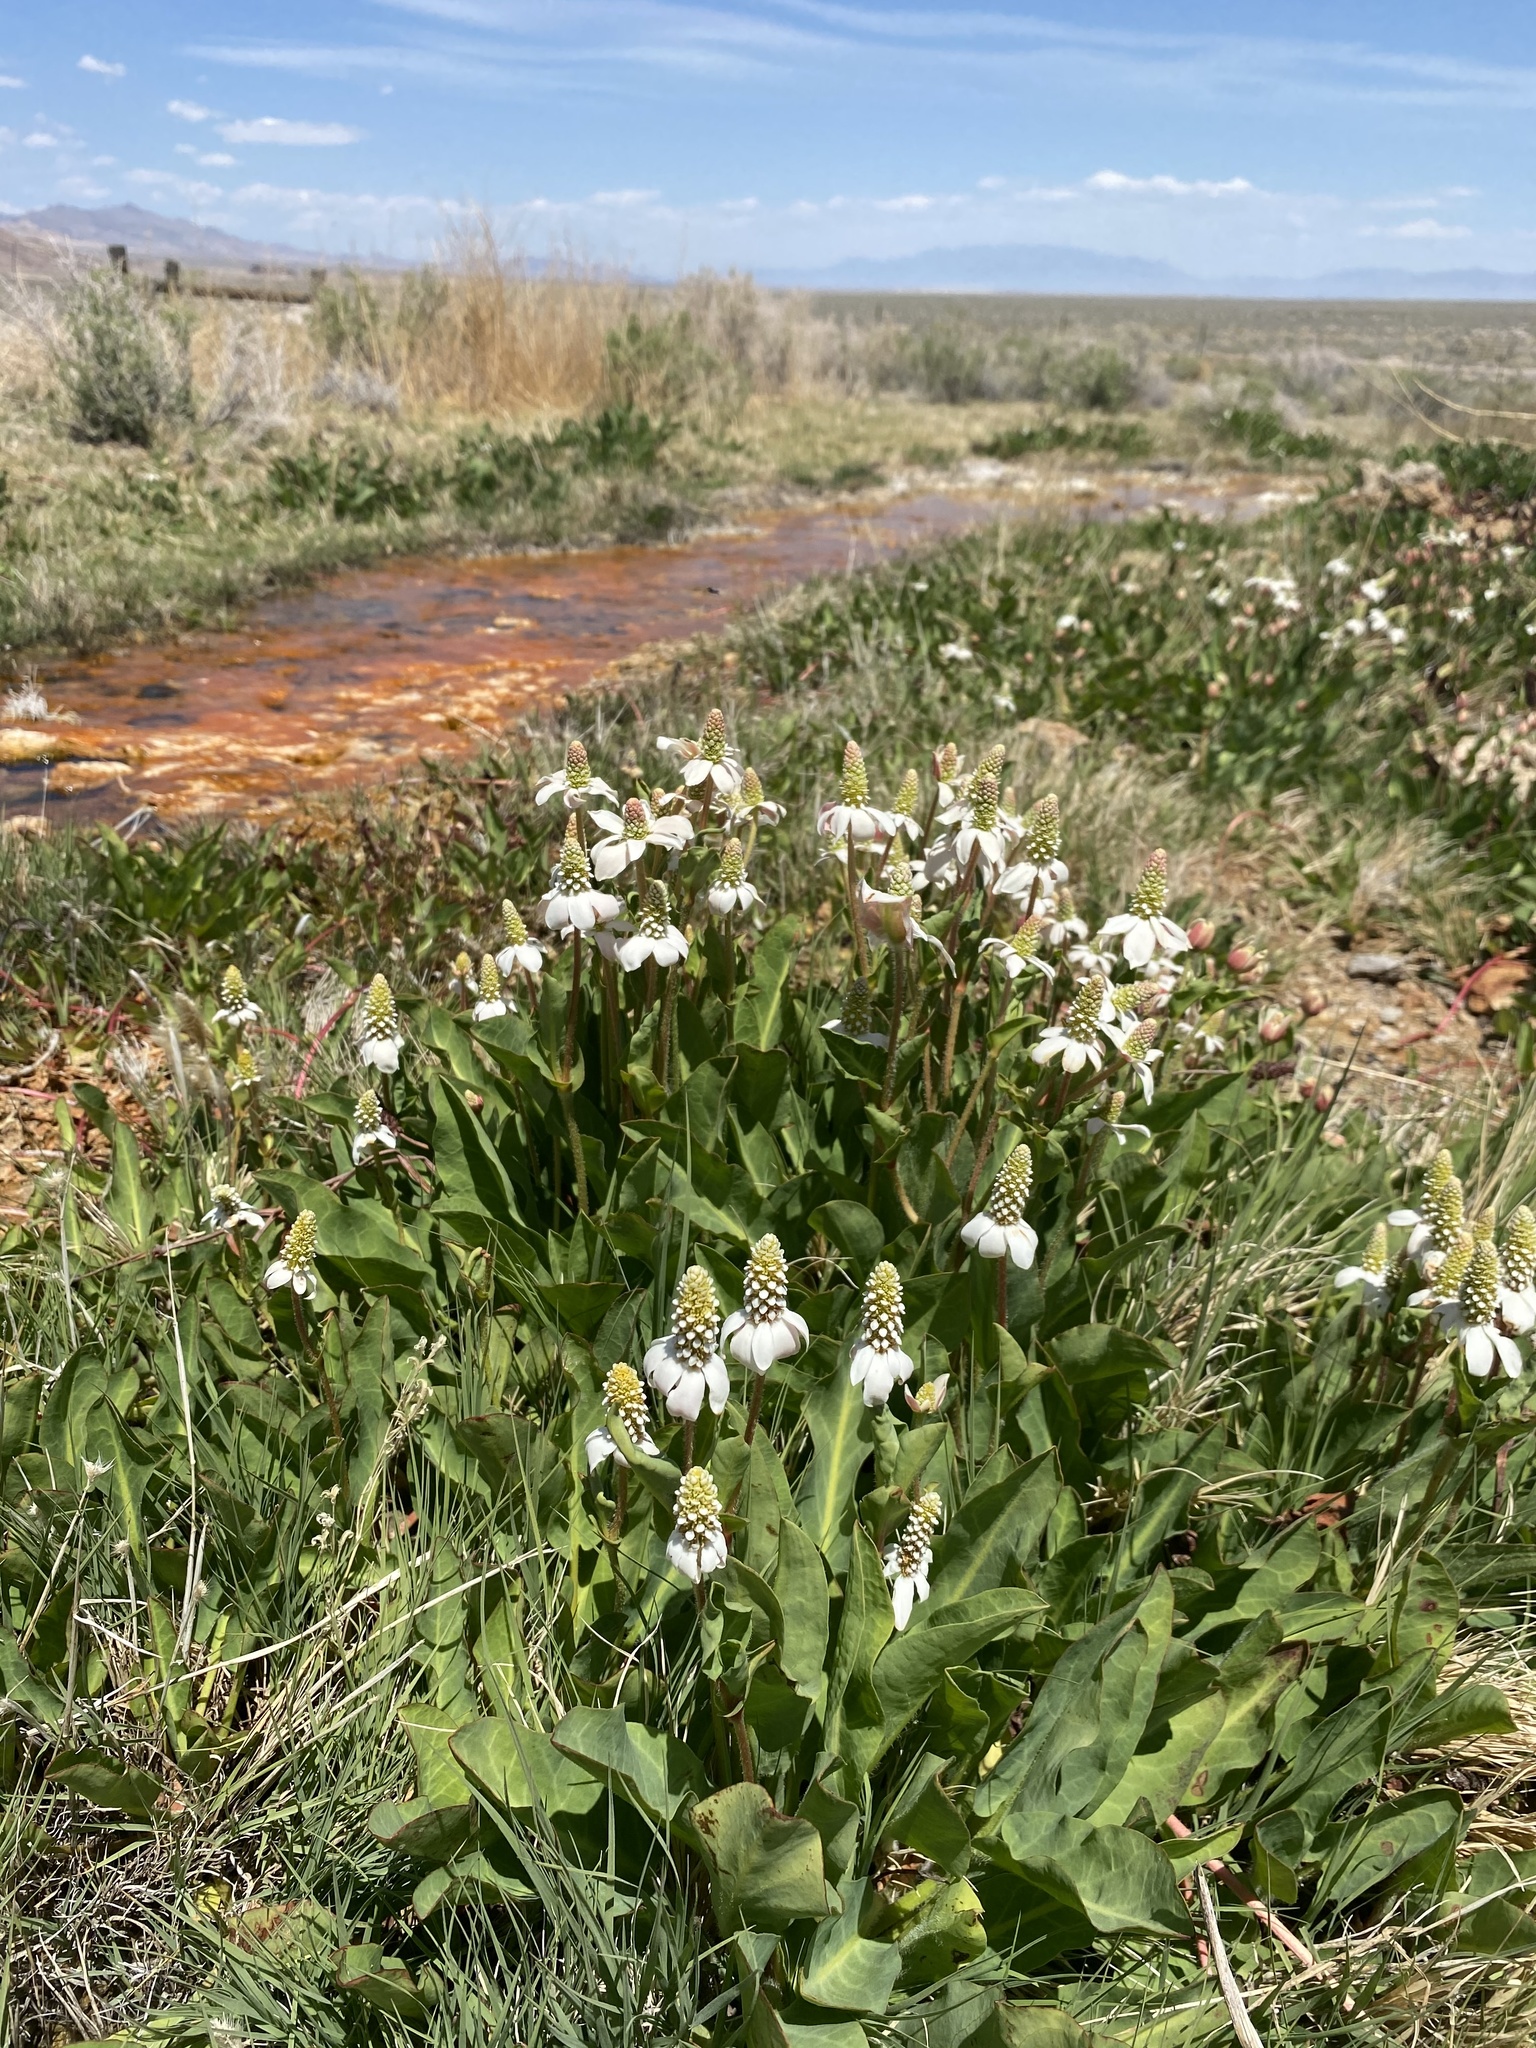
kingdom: Plantae
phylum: Tracheophyta
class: Magnoliopsida
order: Piperales
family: Saururaceae
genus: Anemopsis
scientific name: Anemopsis californica
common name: Apache-beads
